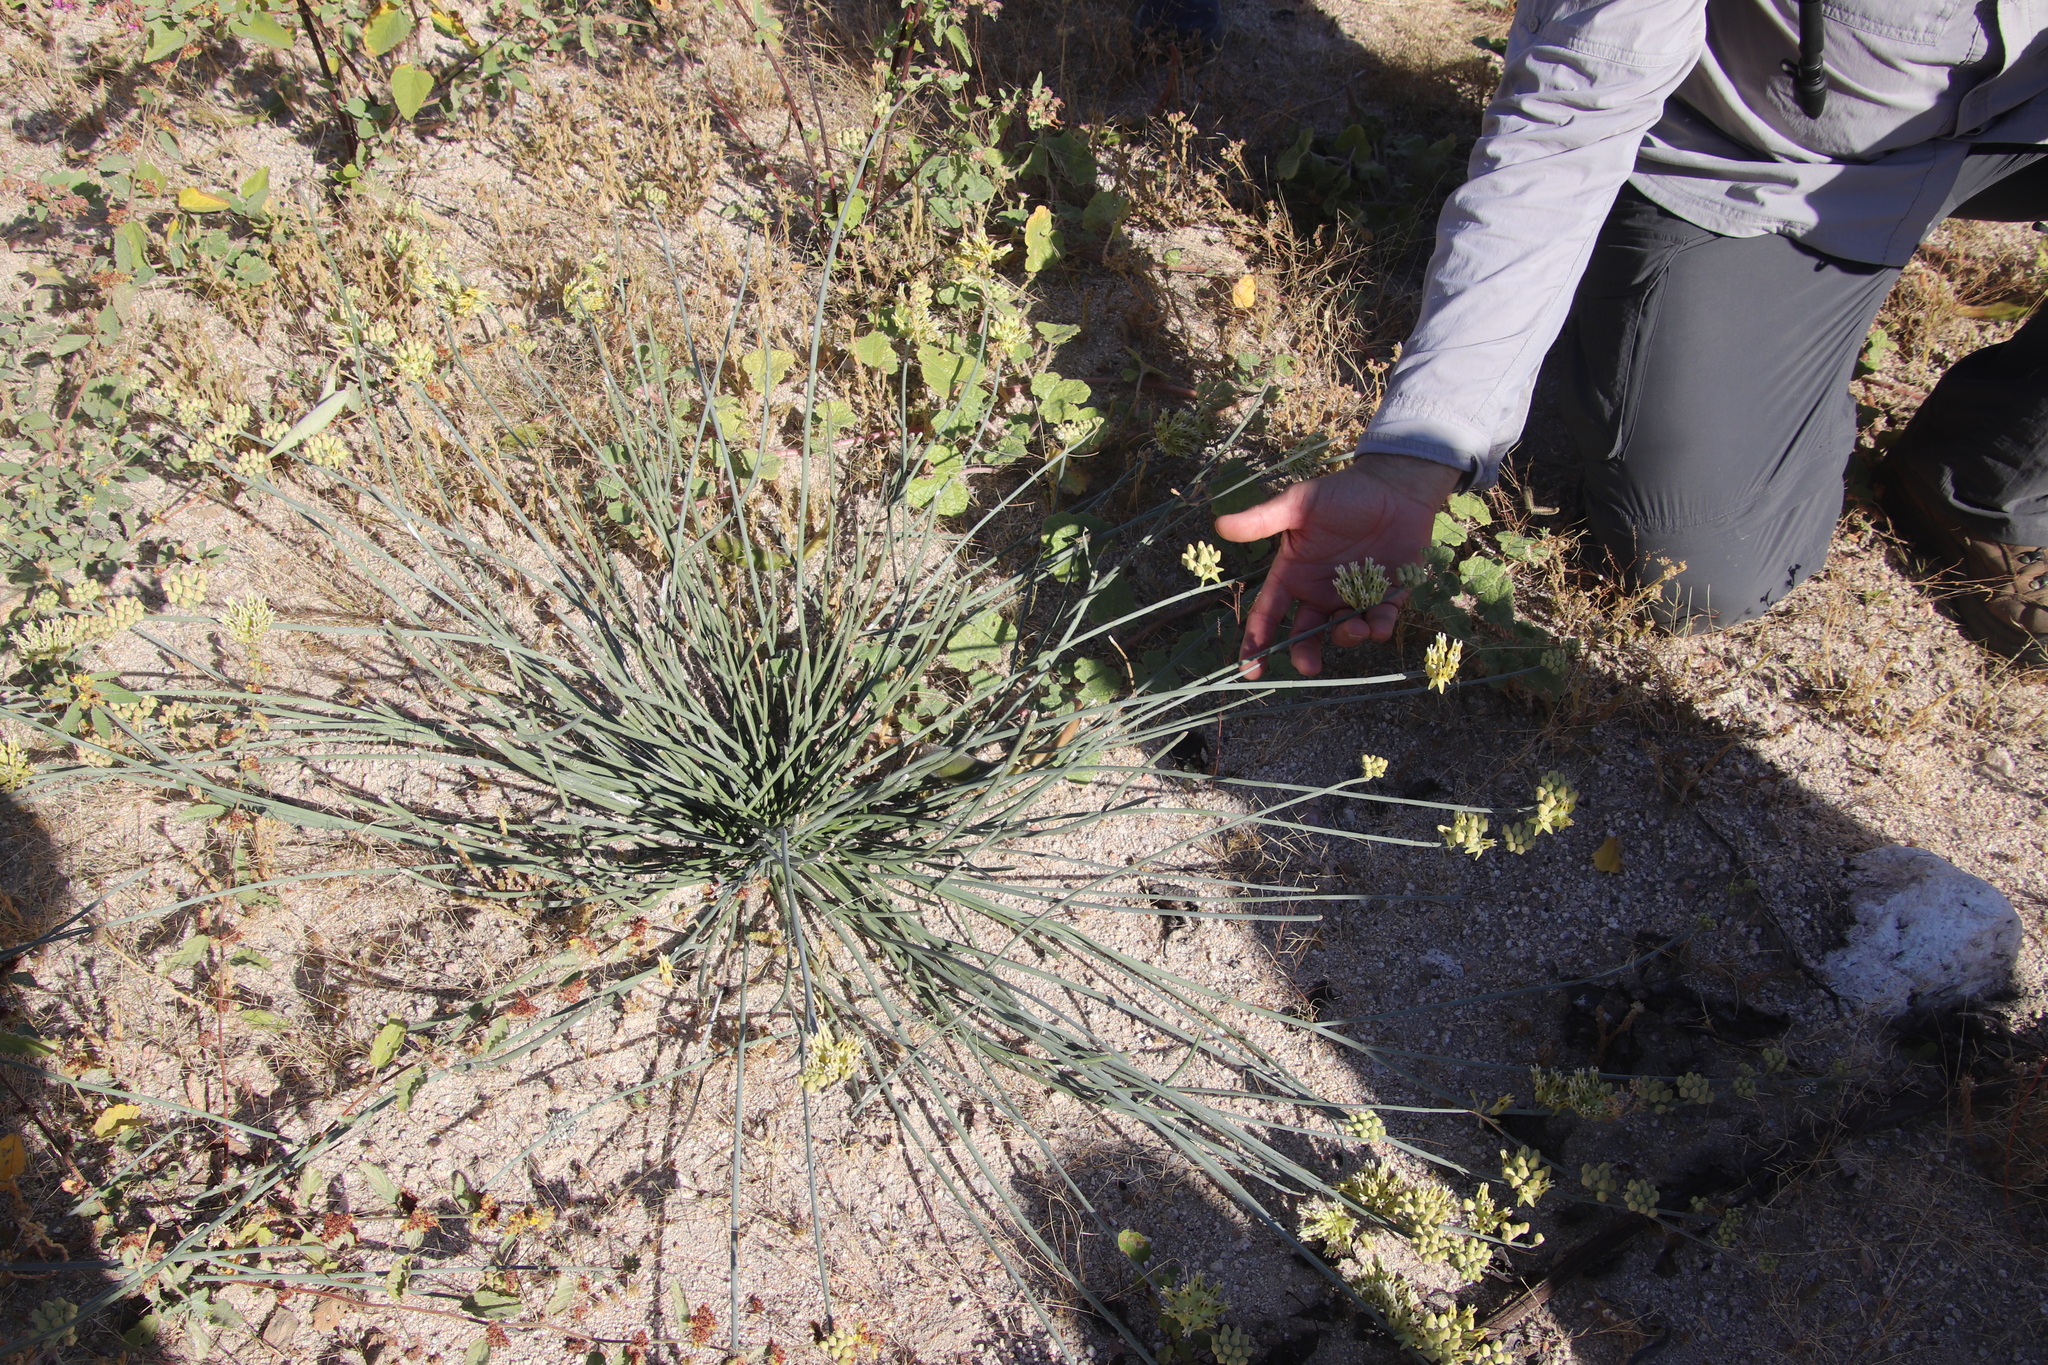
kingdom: Plantae
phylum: Tracheophyta
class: Magnoliopsida
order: Gentianales
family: Apocynaceae
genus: Asclepias
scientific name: Asclepias subulata
